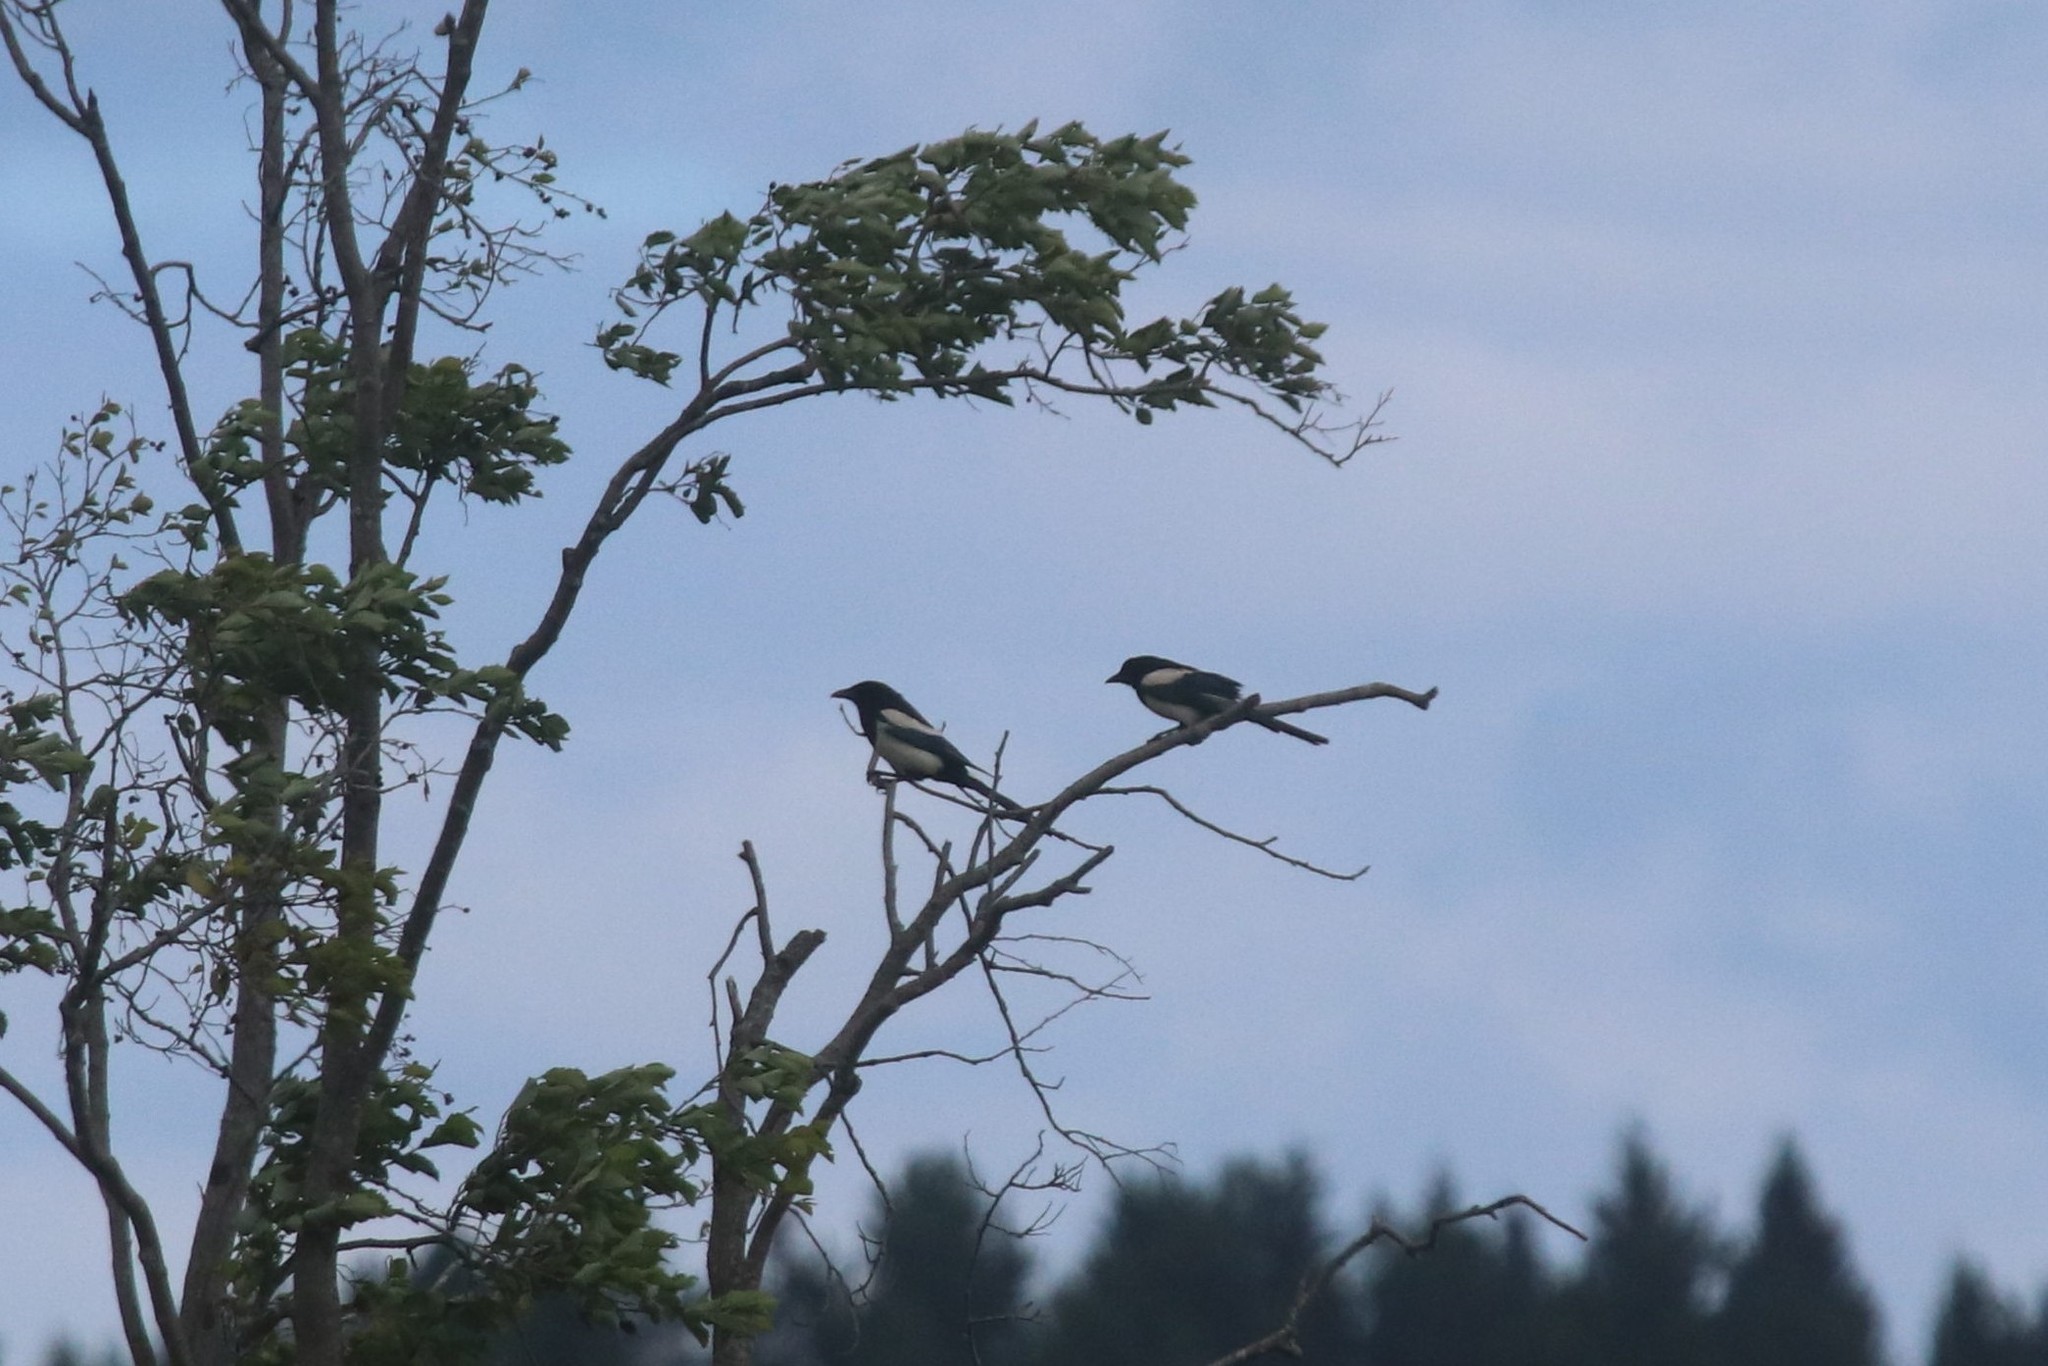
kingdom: Animalia
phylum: Chordata
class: Aves
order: Passeriformes
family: Corvidae
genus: Pica
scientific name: Pica pica
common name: Eurasian magpie
